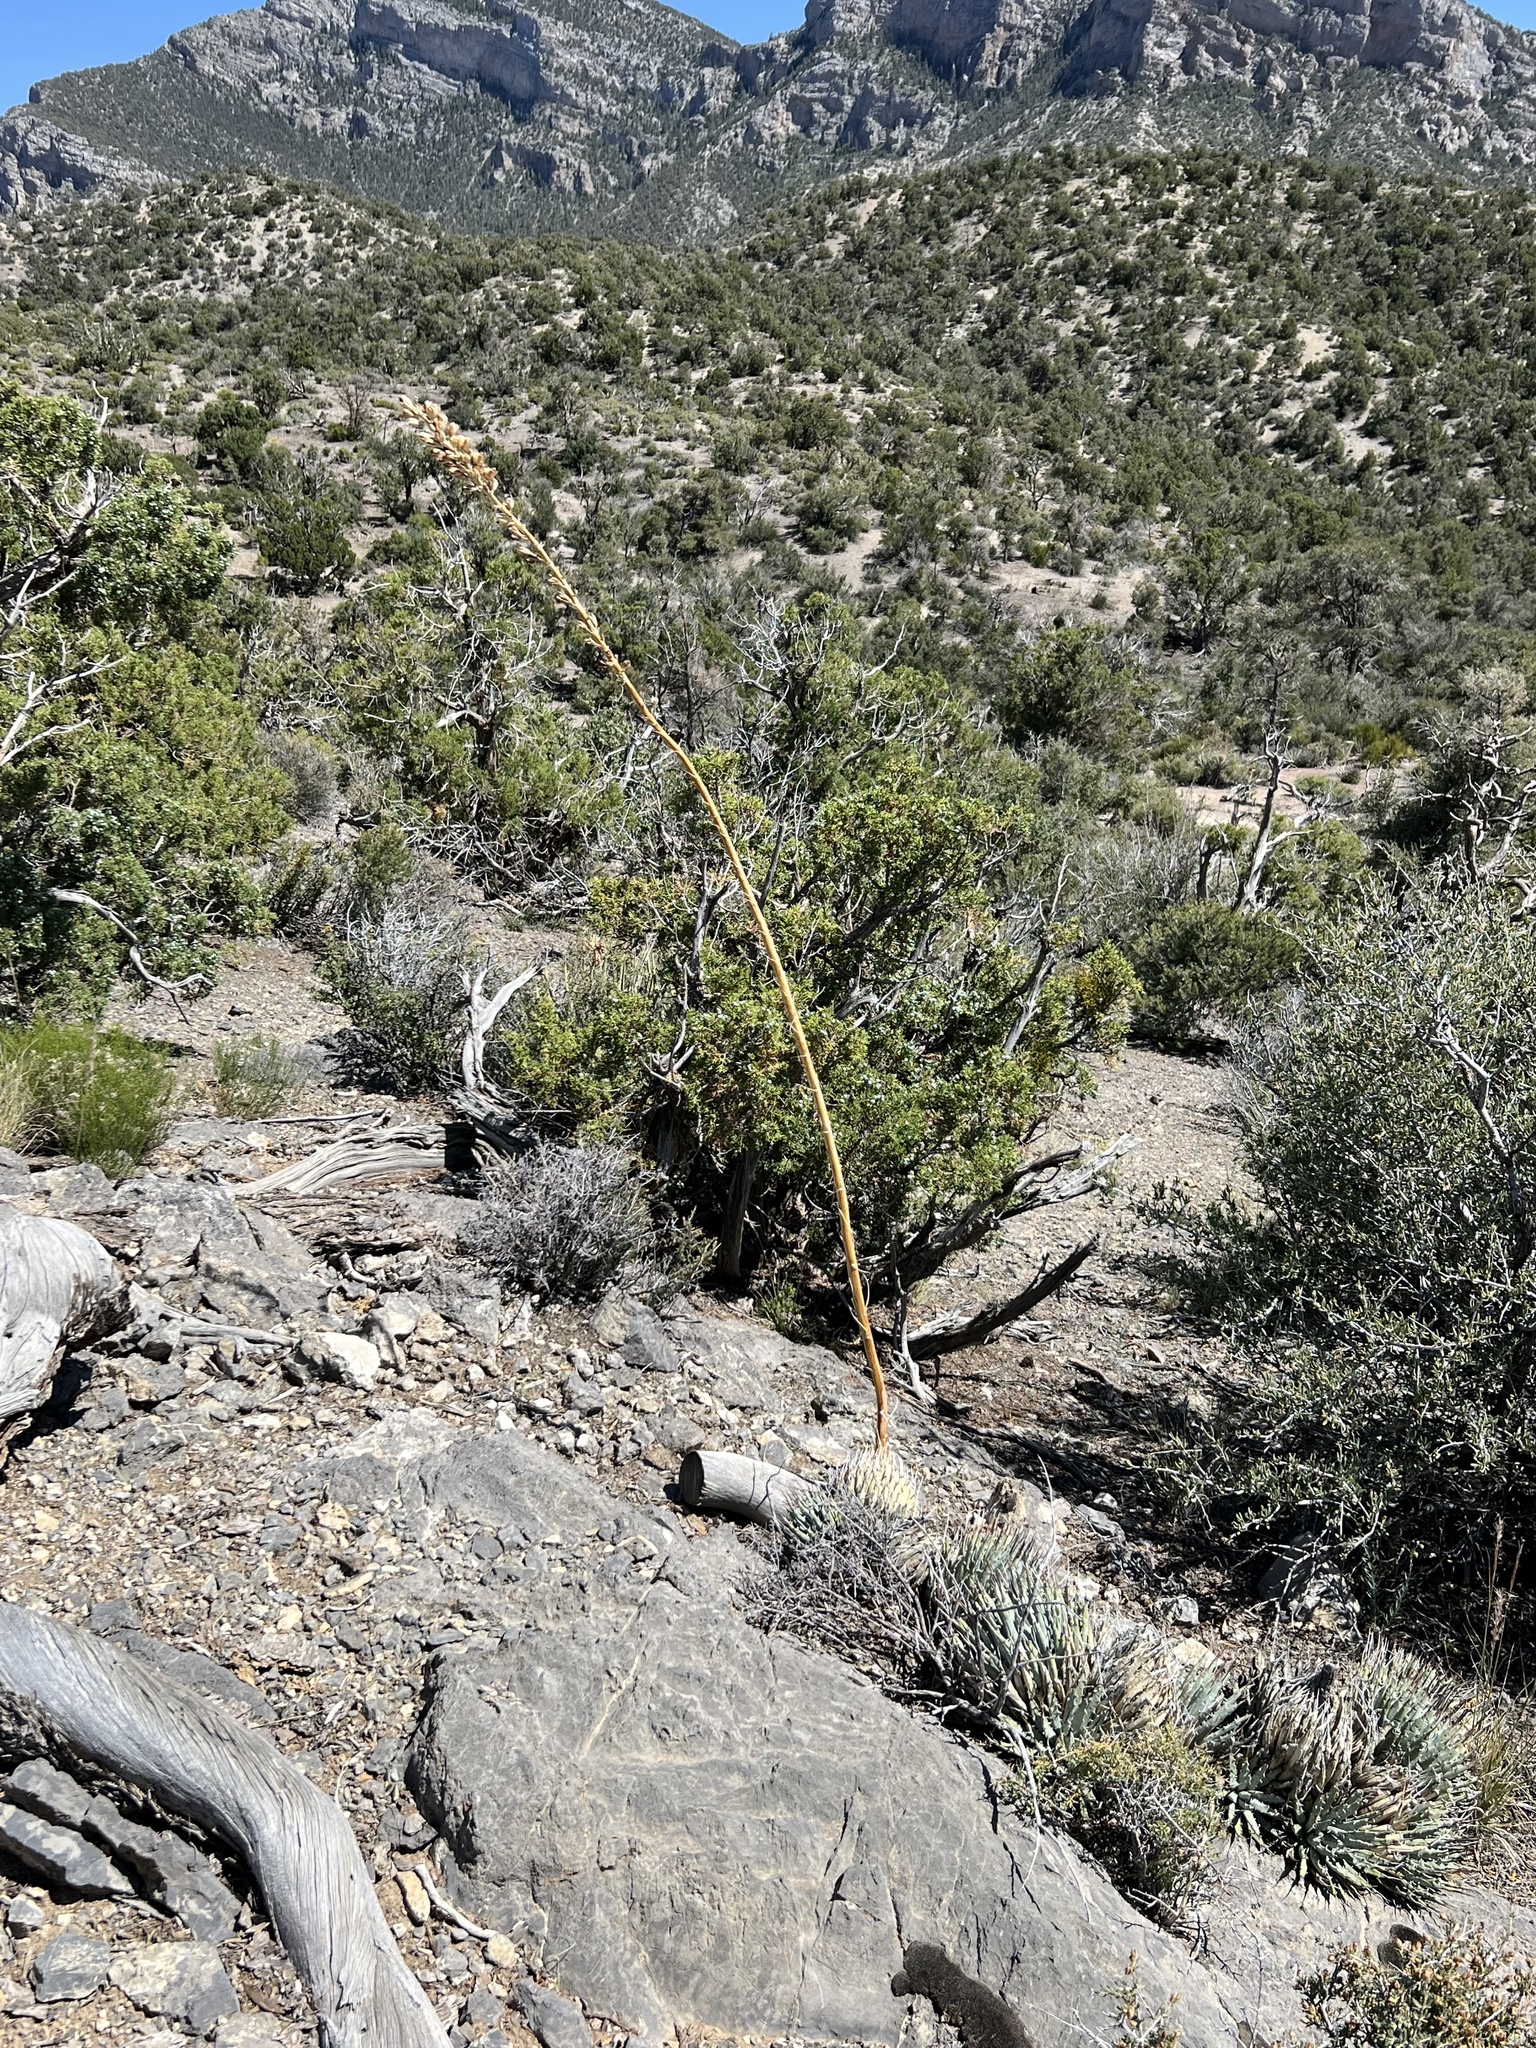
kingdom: Plantae
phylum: Tracheophyta
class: Liliopsida
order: Asparagales
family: Asparagaceae
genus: Agave
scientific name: Agave utahensis
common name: Utah agave
